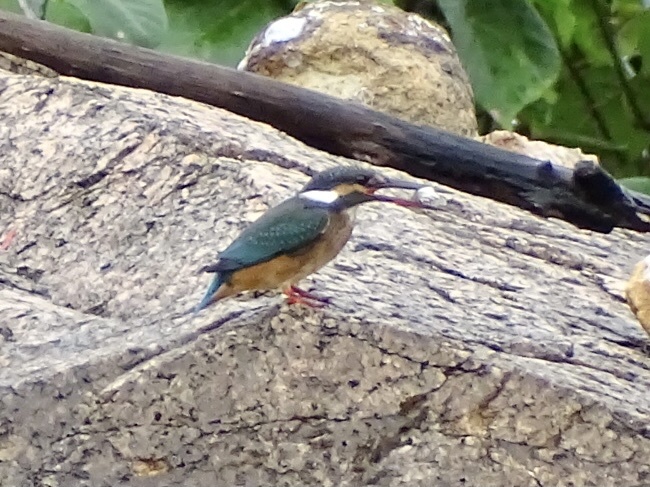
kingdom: Animalia
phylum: Chordata
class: Aves
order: Coraciiformes
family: Alcedinidae
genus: Alcedo
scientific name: Alcedo atthis
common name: Common kingfisher
